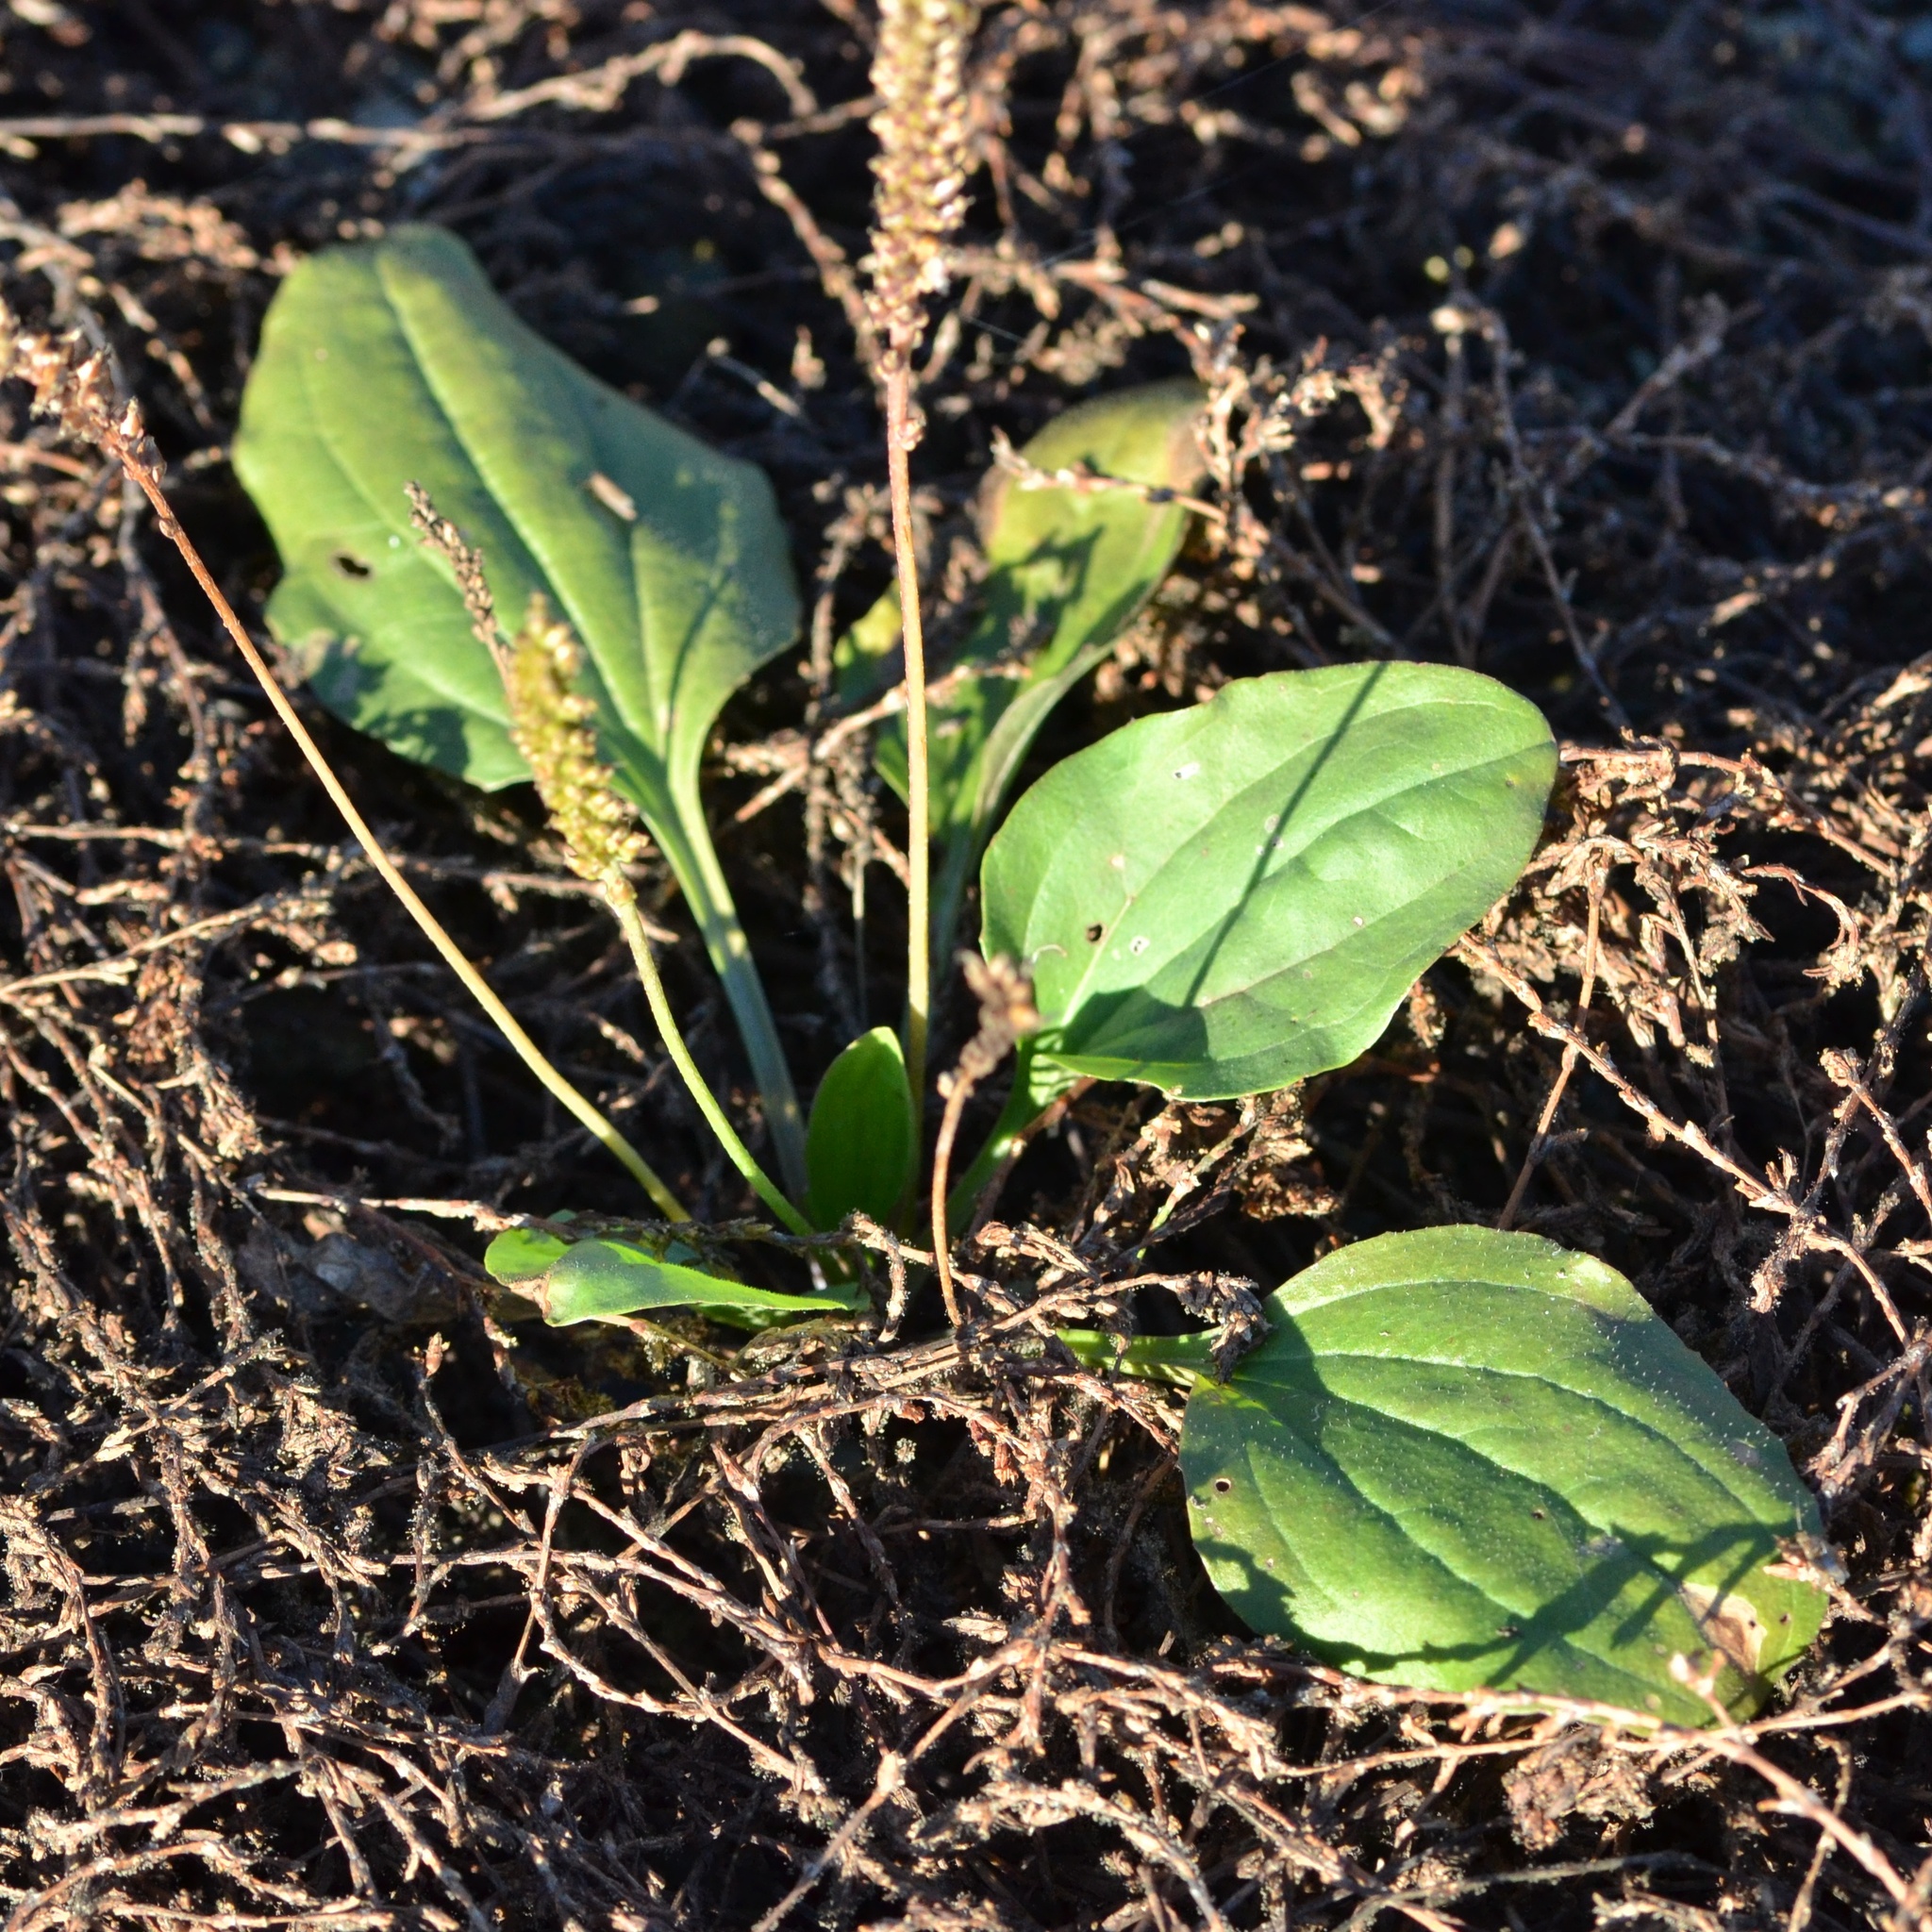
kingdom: Plantae
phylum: Tracheophyta
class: Magnoliopsida
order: Lamiales
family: Plantaginaceae
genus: Plantago
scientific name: Plantago major
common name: Common plantain
